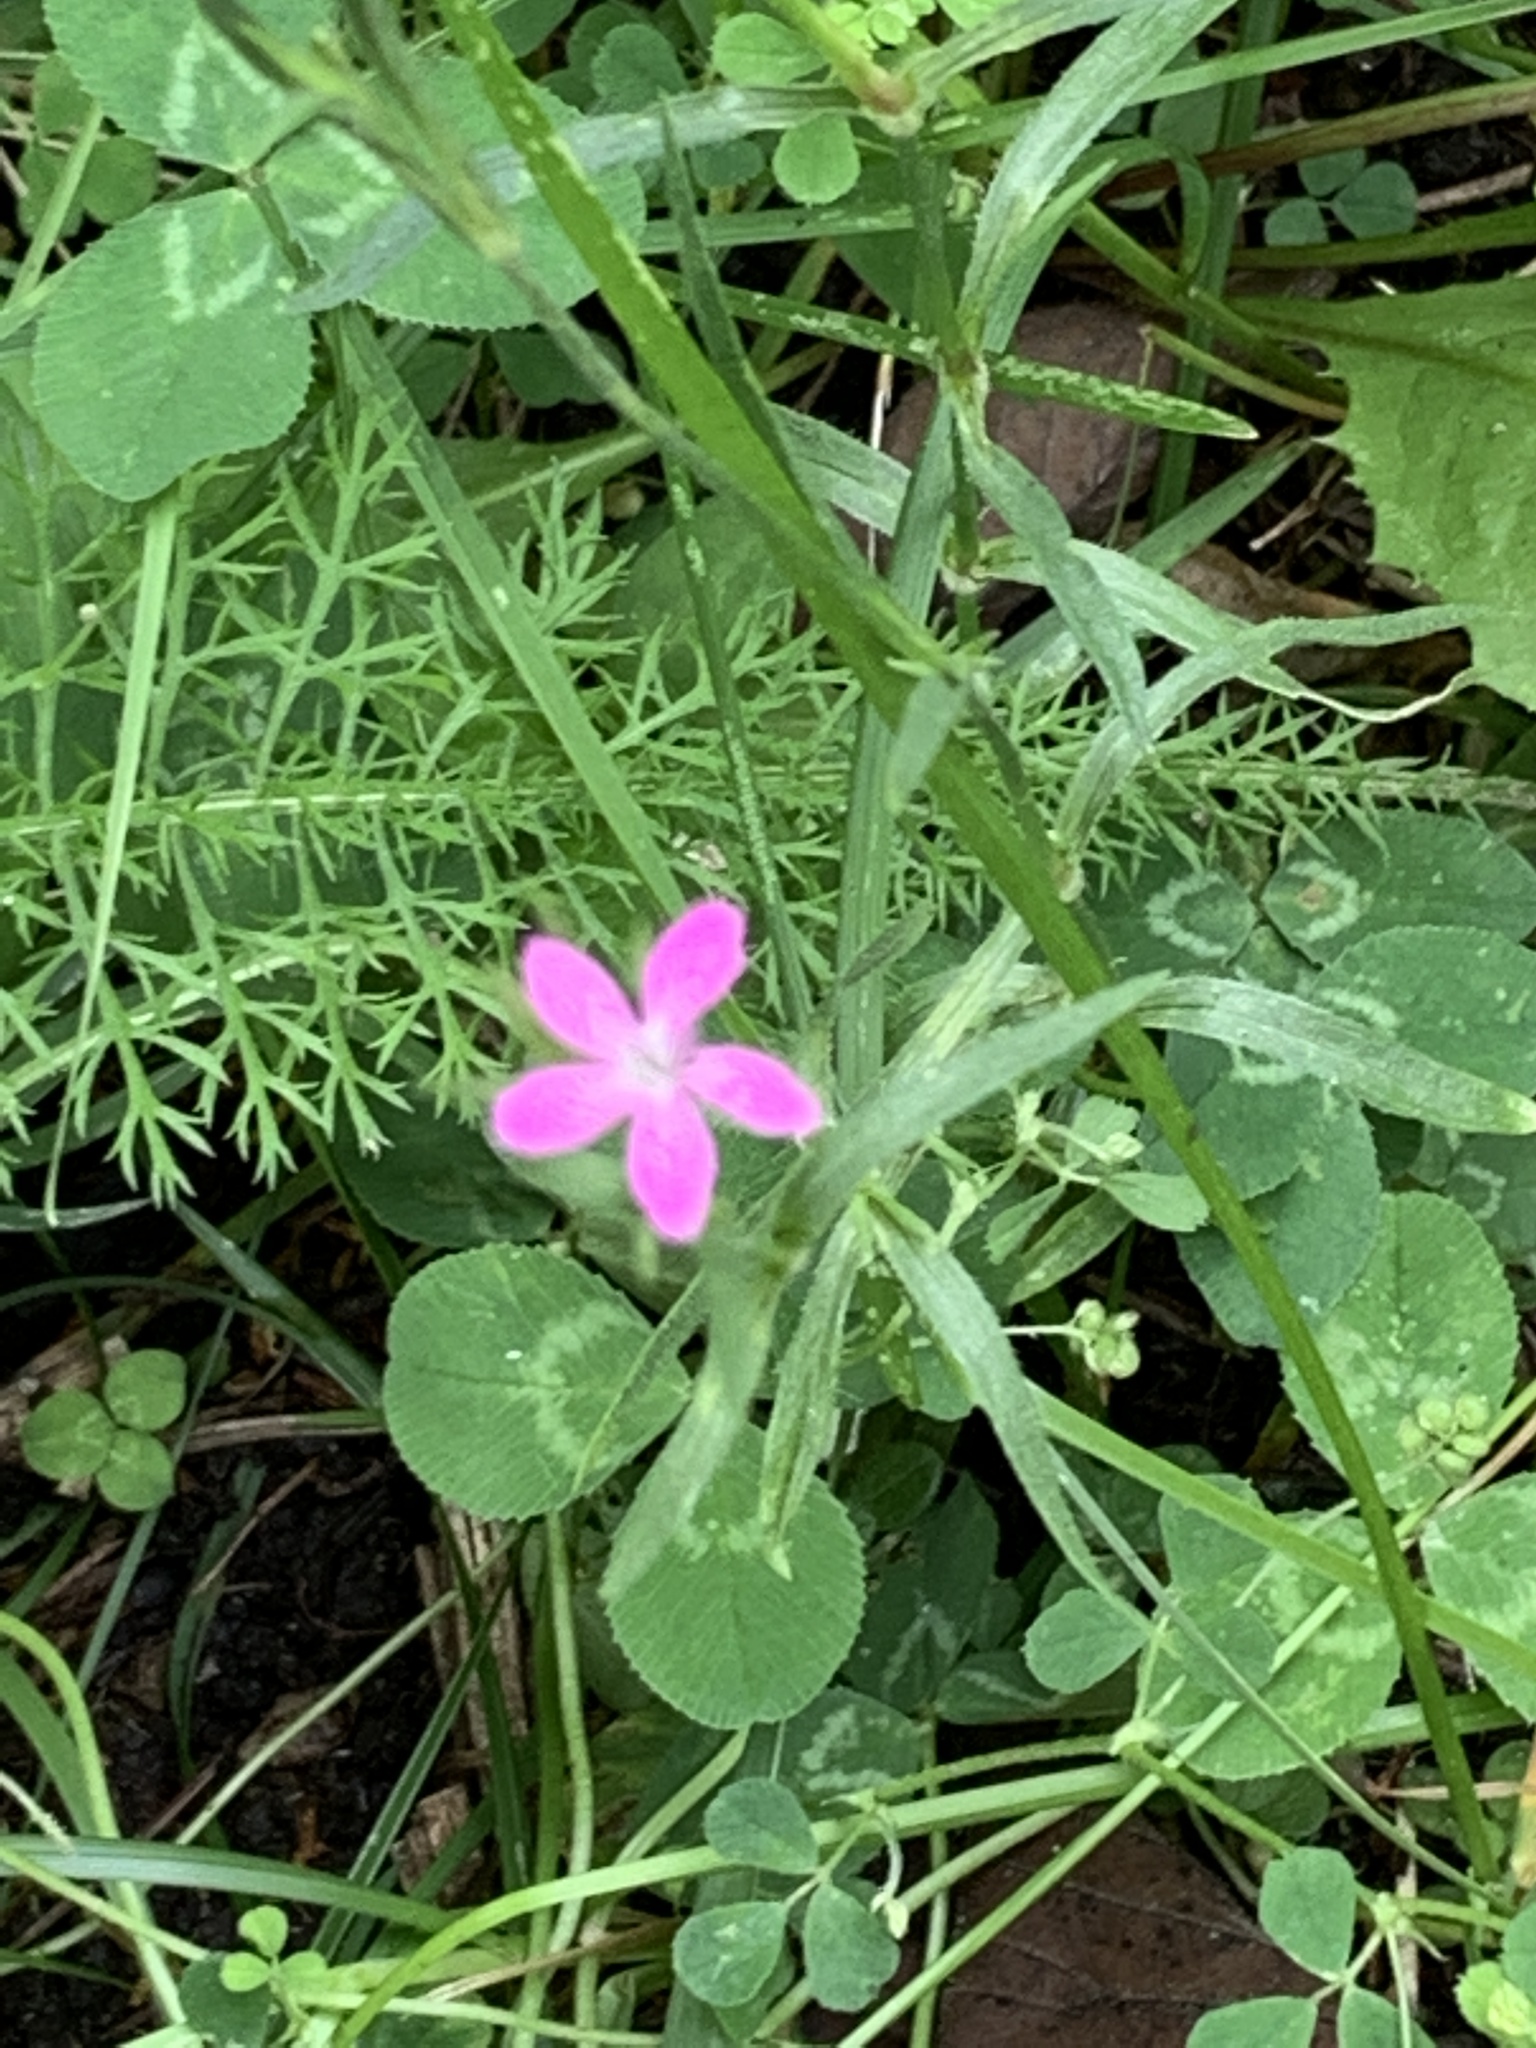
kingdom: Plantae
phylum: Tracheophyta
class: Magnoliopsida
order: Caryophyllales
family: Caryophyllaceae
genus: Dianthus
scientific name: Dianthus armeria
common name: Deptford pink
